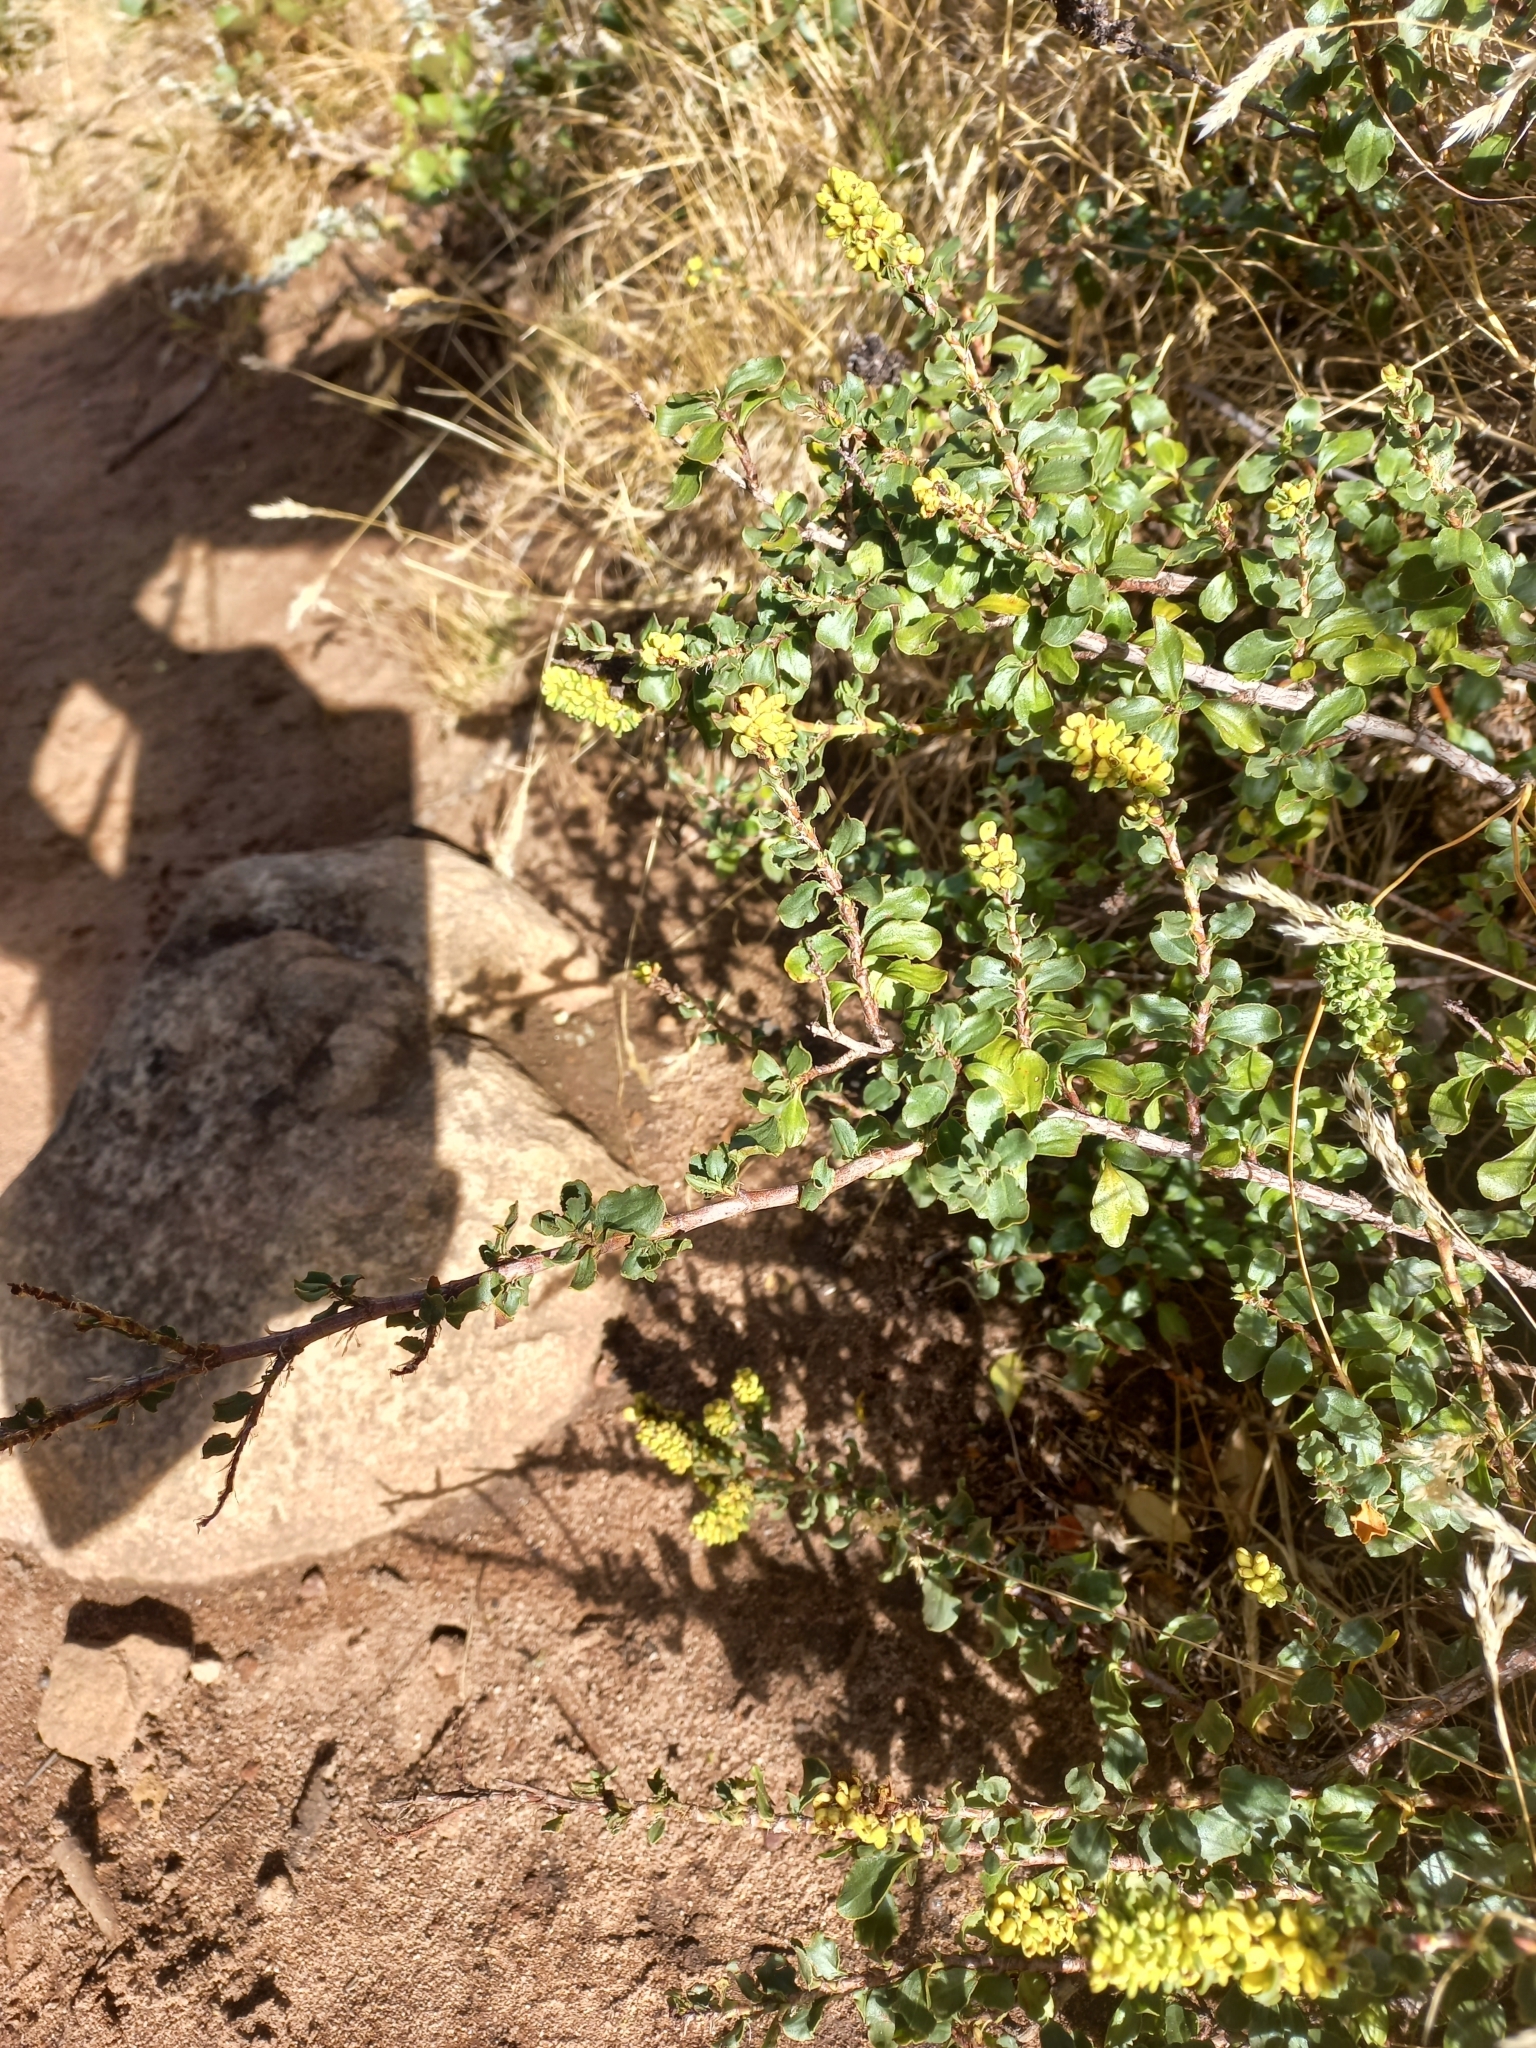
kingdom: Plantae
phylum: Tracheophyta
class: Magnoliopsida
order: Caryophyllales
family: Amaranthaceae
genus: Exomis
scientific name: Exomis albicans
